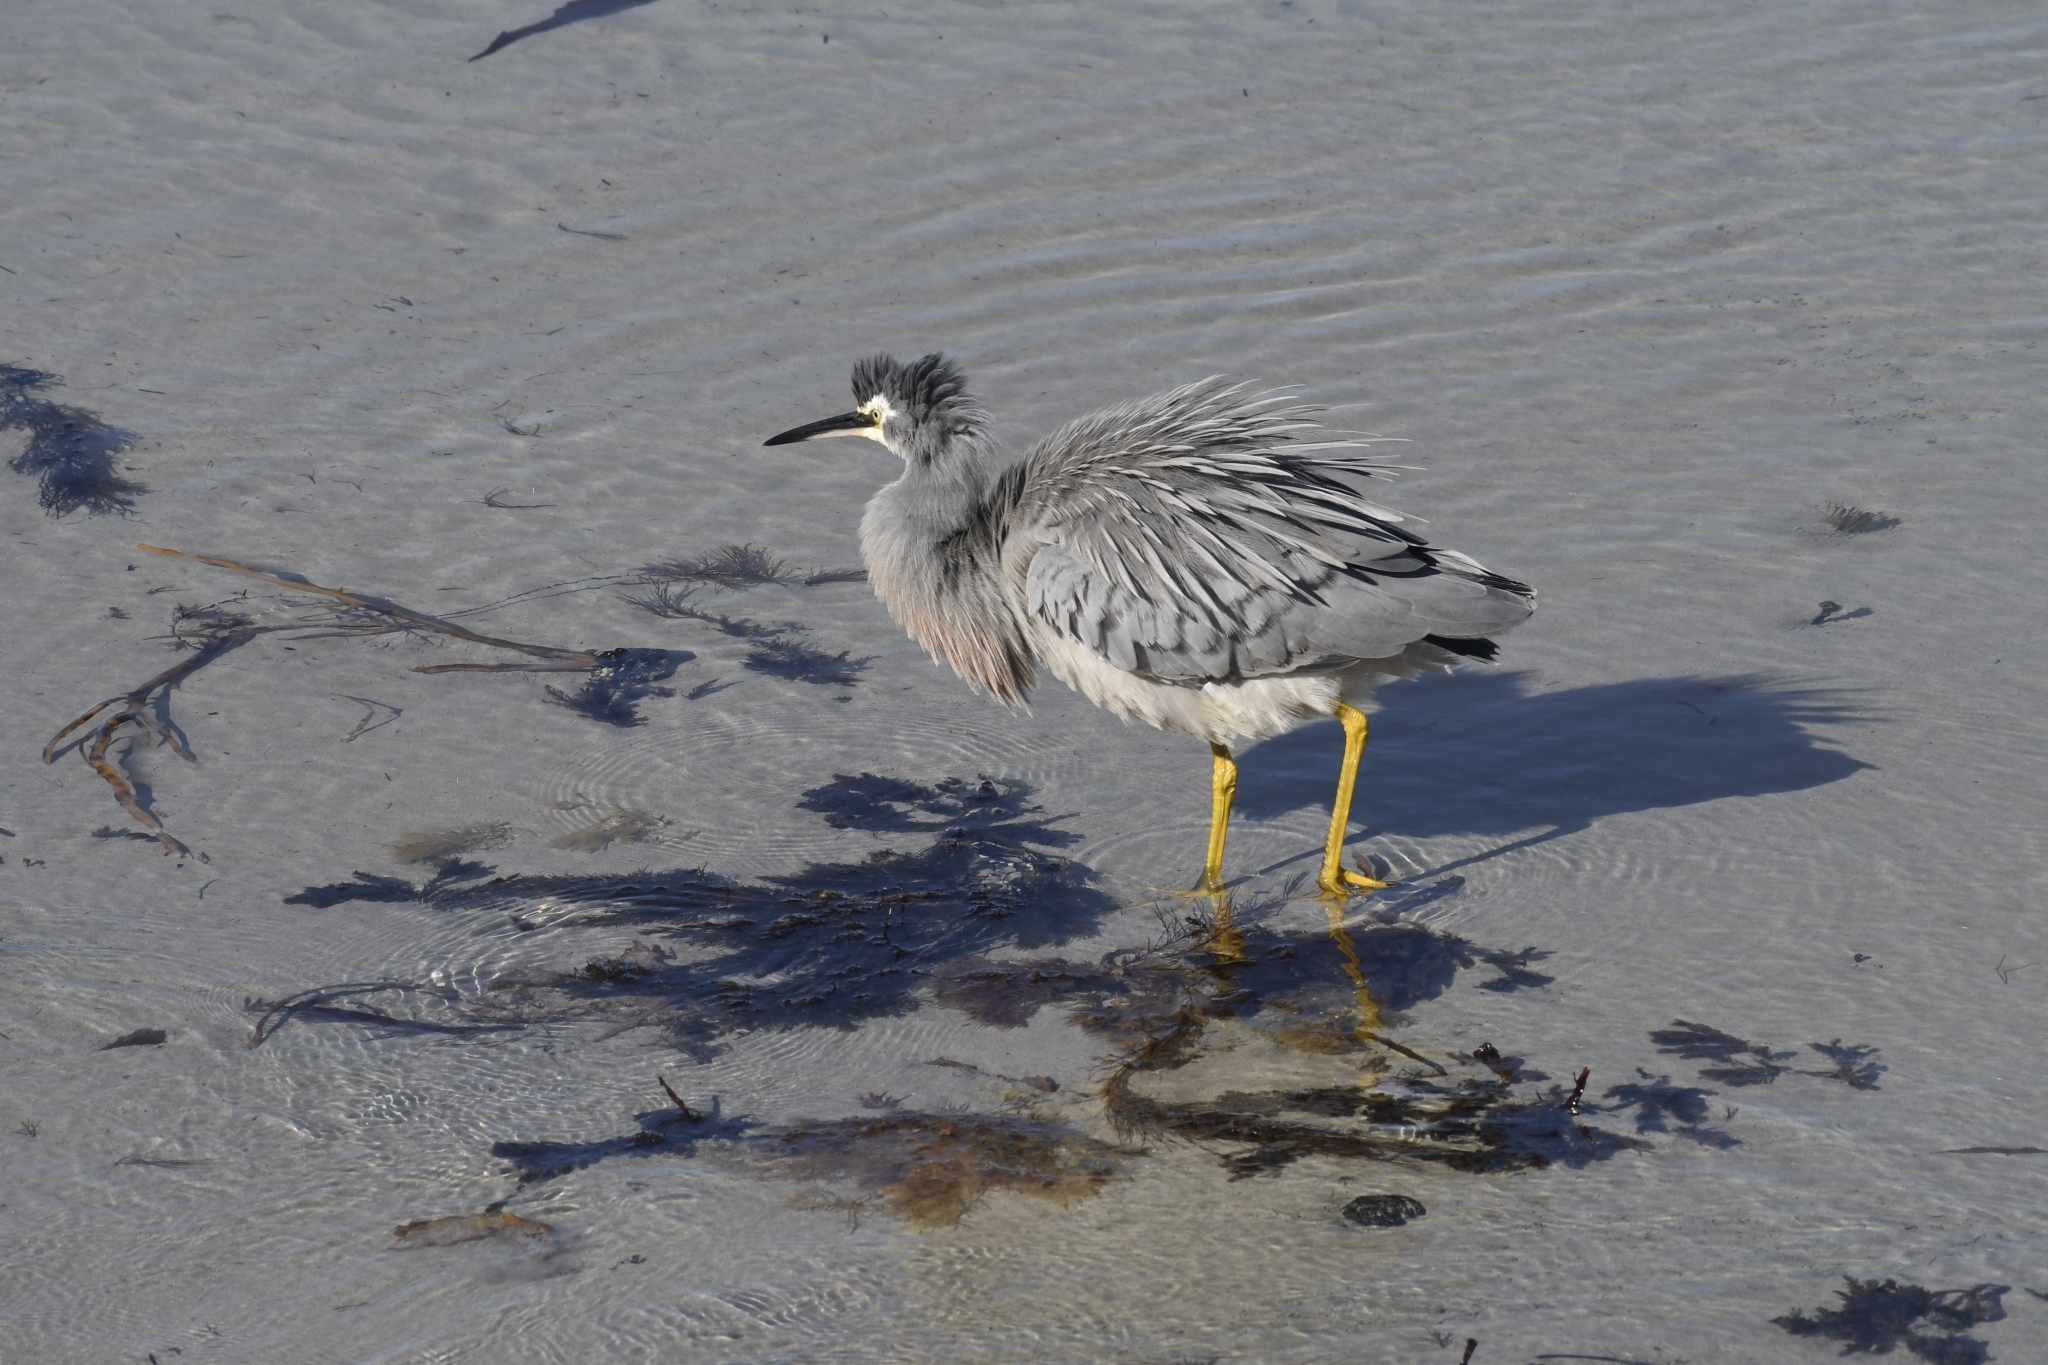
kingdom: Animalia
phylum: Chordata
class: Aves
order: Pelecaniformes
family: Ardeidae
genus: Egretta
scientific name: Egretta novaehollandiae
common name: White-faced heron
